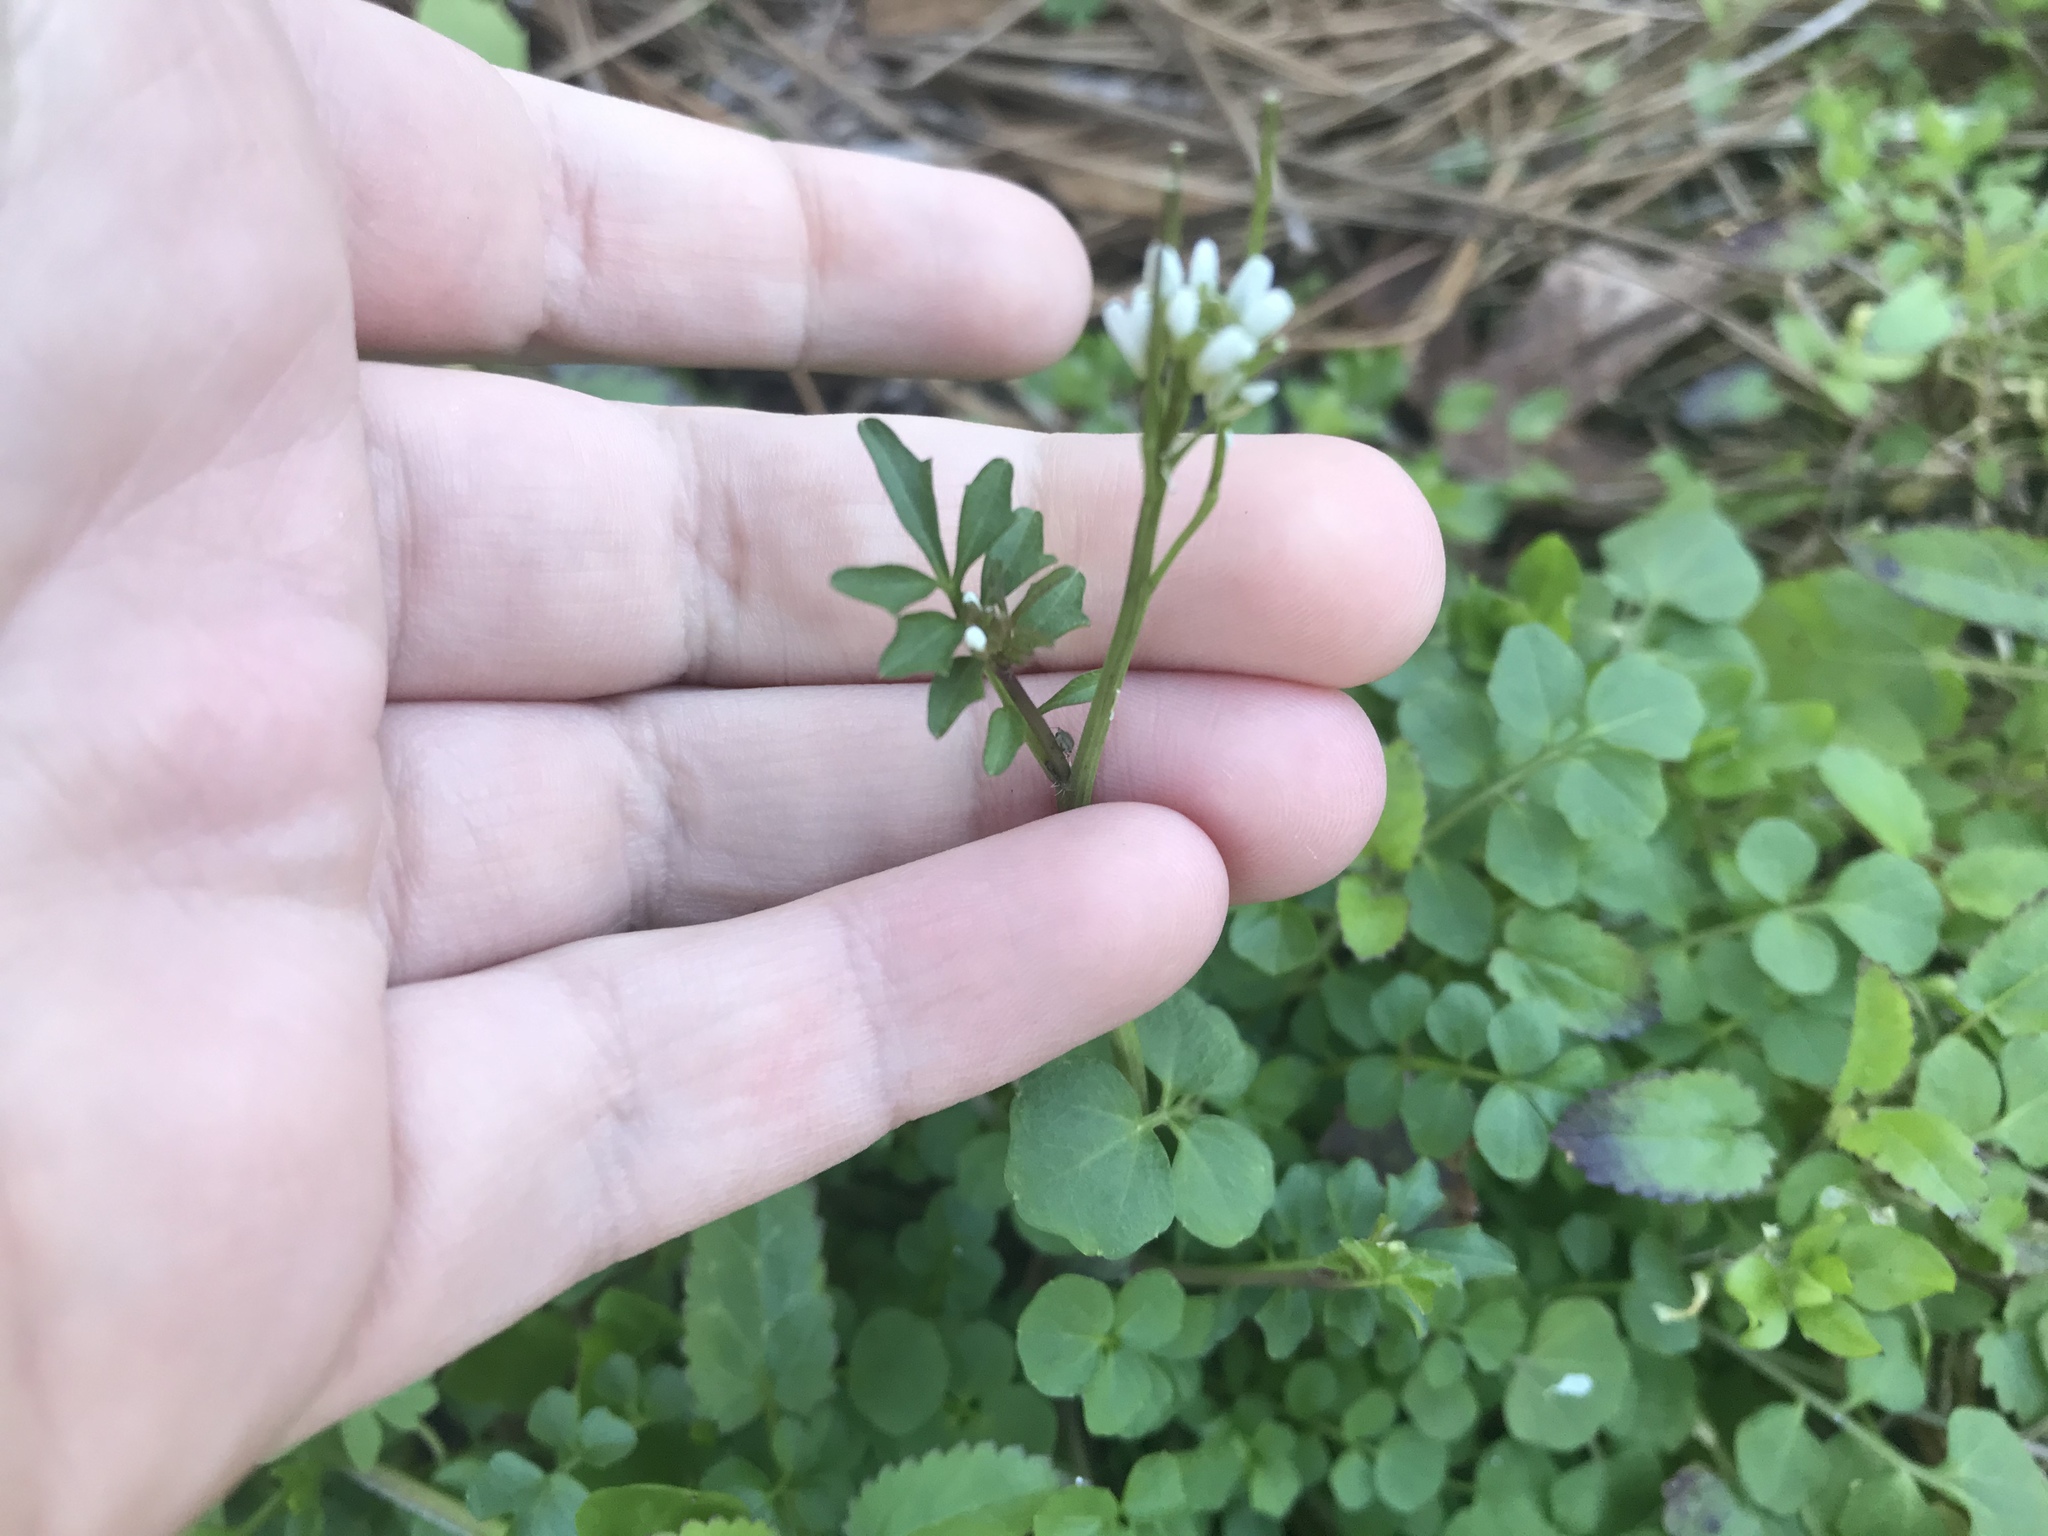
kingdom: Plantae
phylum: Tracheophyta
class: Magnoliopsida
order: Brassicales
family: Brassicaceae
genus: Cardamine
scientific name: Cardamine hirsuta
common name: Hairy bittercress
